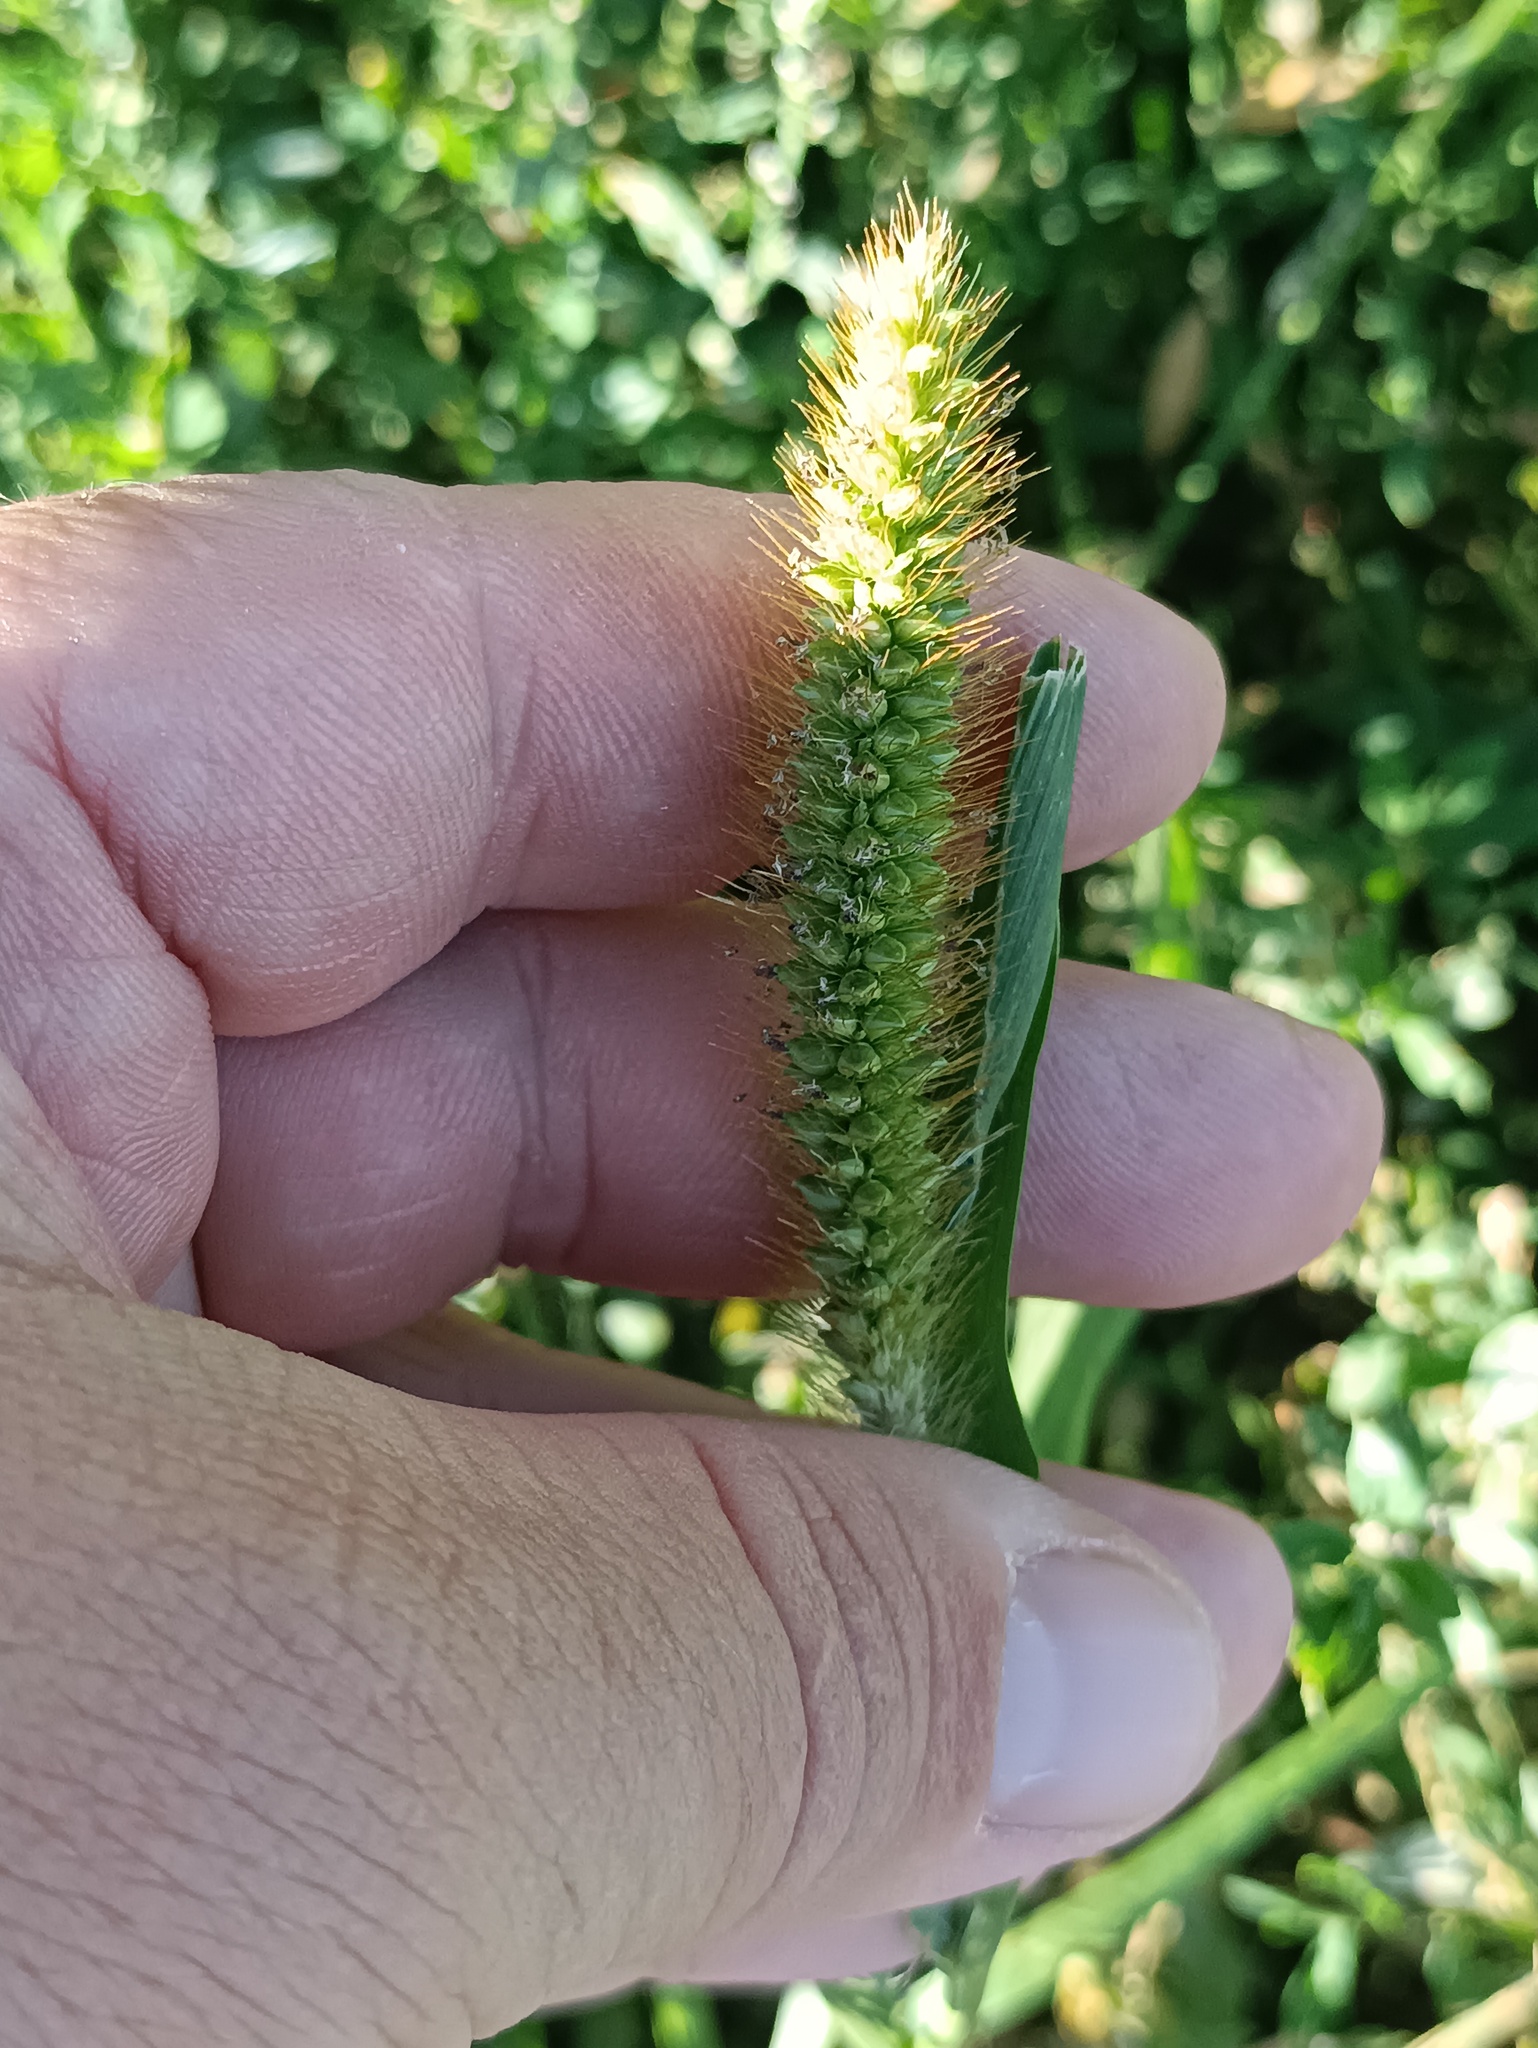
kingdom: Plantae
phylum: Tracheophyta
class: Liliopsida
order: Poales
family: Poaceae
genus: Setaria
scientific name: Setaria pumila
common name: Yellow bristle-grass
